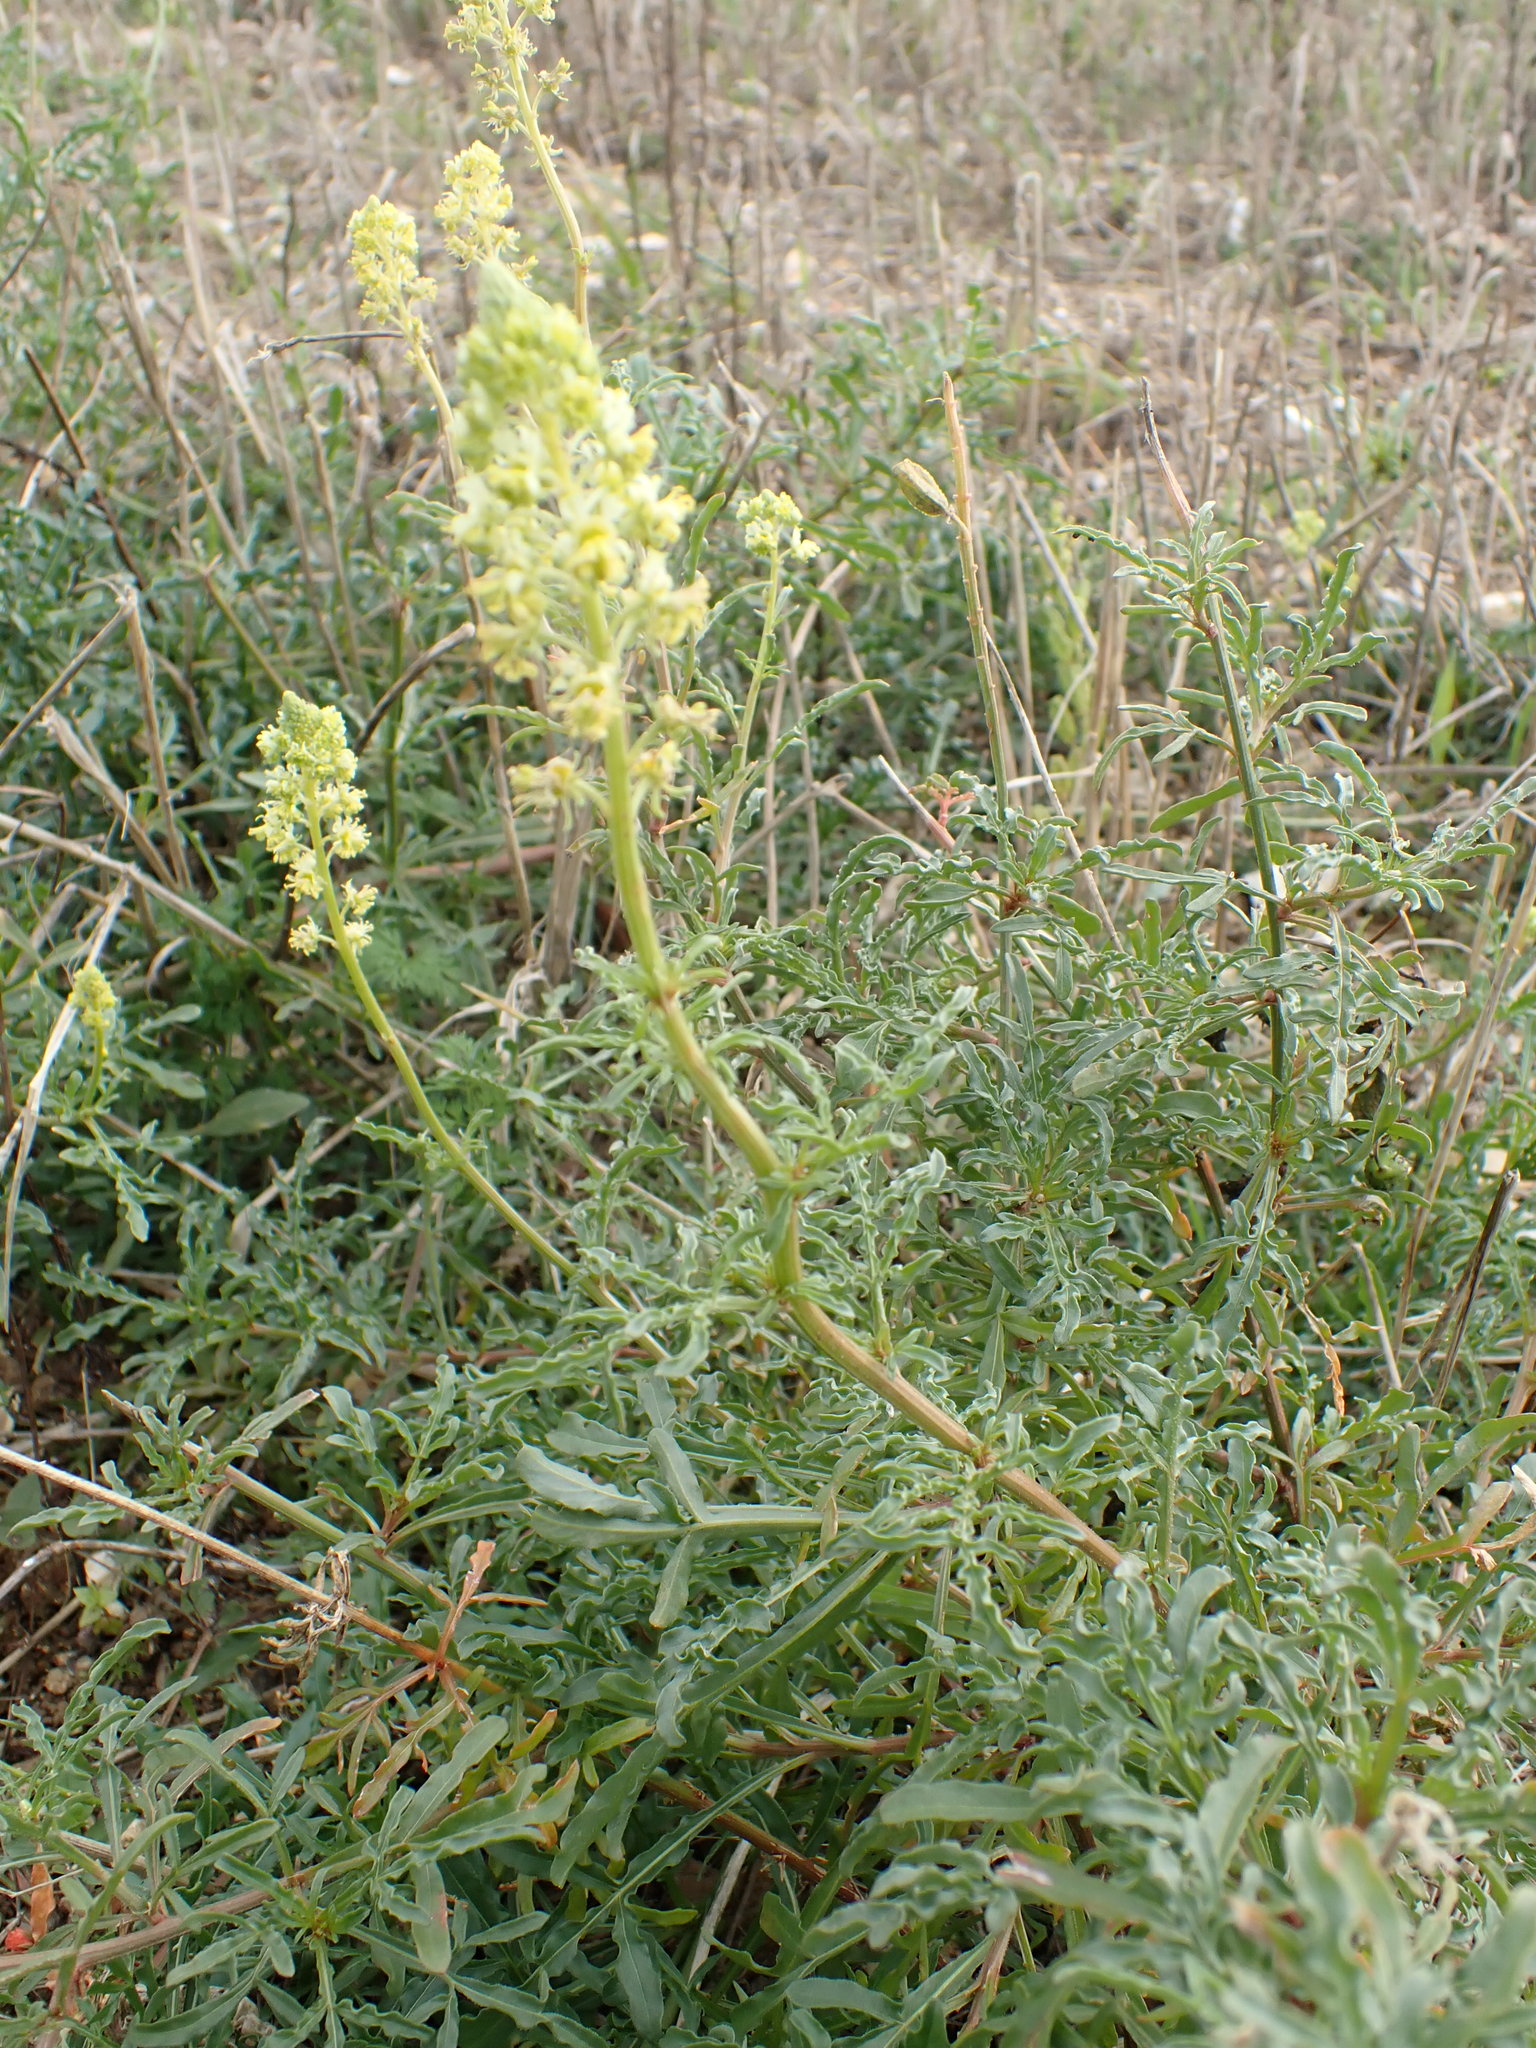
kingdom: Plantae
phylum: Tracheophyta
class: Magnoliopsida
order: Brassicales
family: Resedaceae
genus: Reseda
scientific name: Reseda lutea
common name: Wild mignonette
